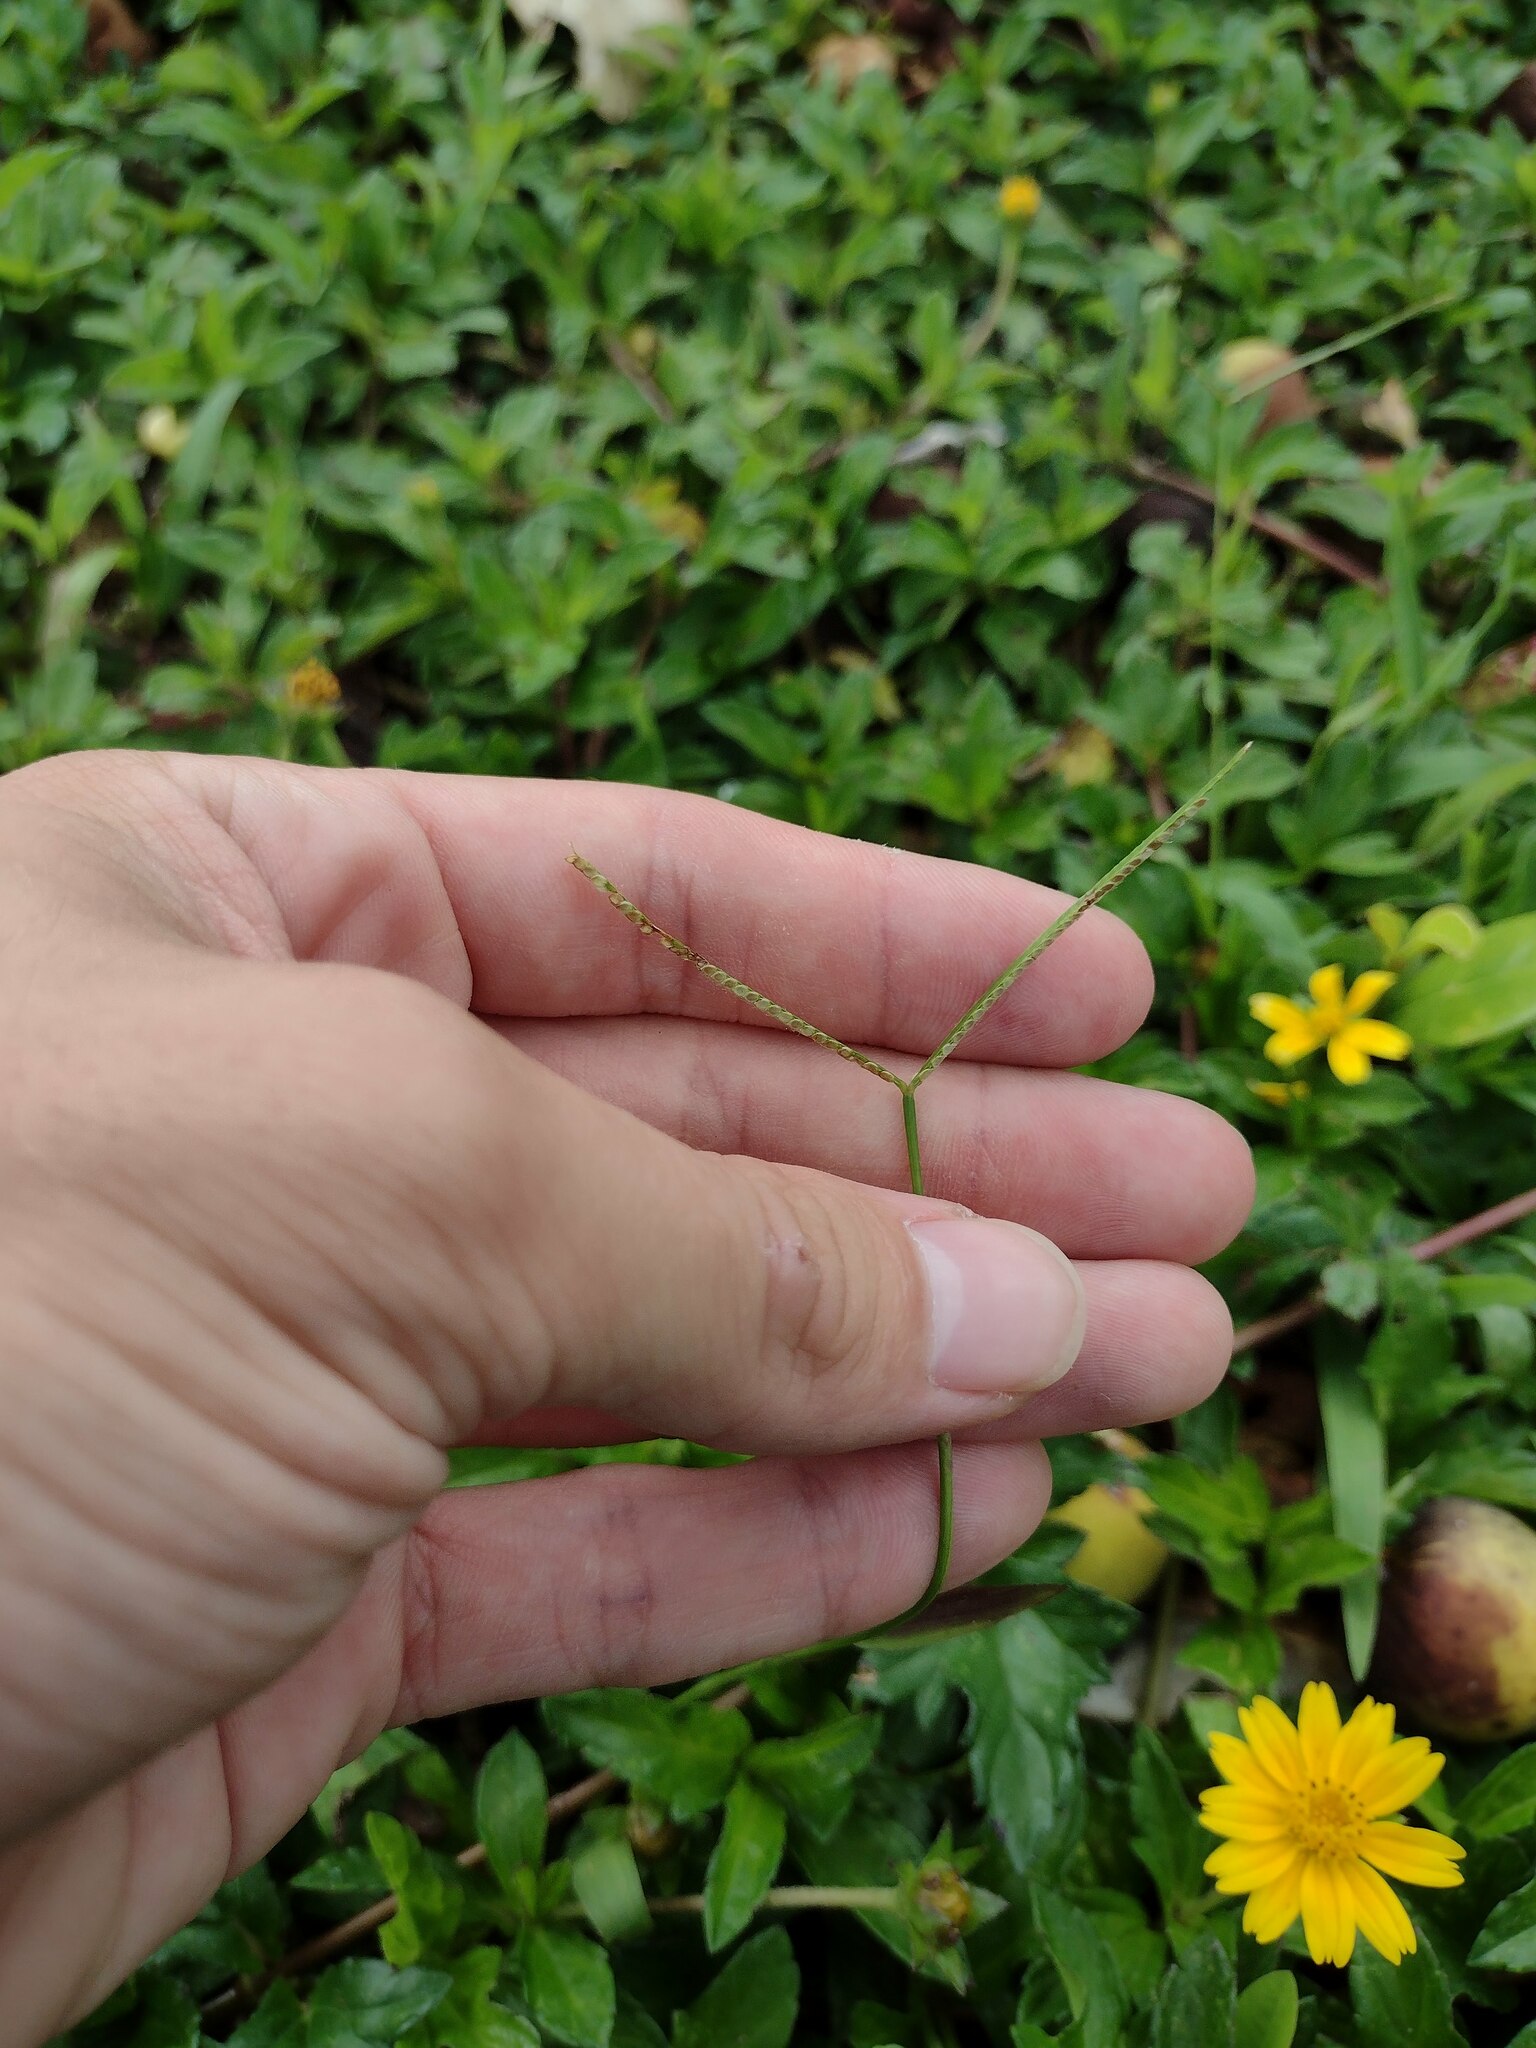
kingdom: Plantae
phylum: Tracheophyta
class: Magnoliopsida
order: Asterales
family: Asteraceae
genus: Sphagneticola
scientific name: Sphagneticola trilobata
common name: Bay biscayne creeping-oxeye
